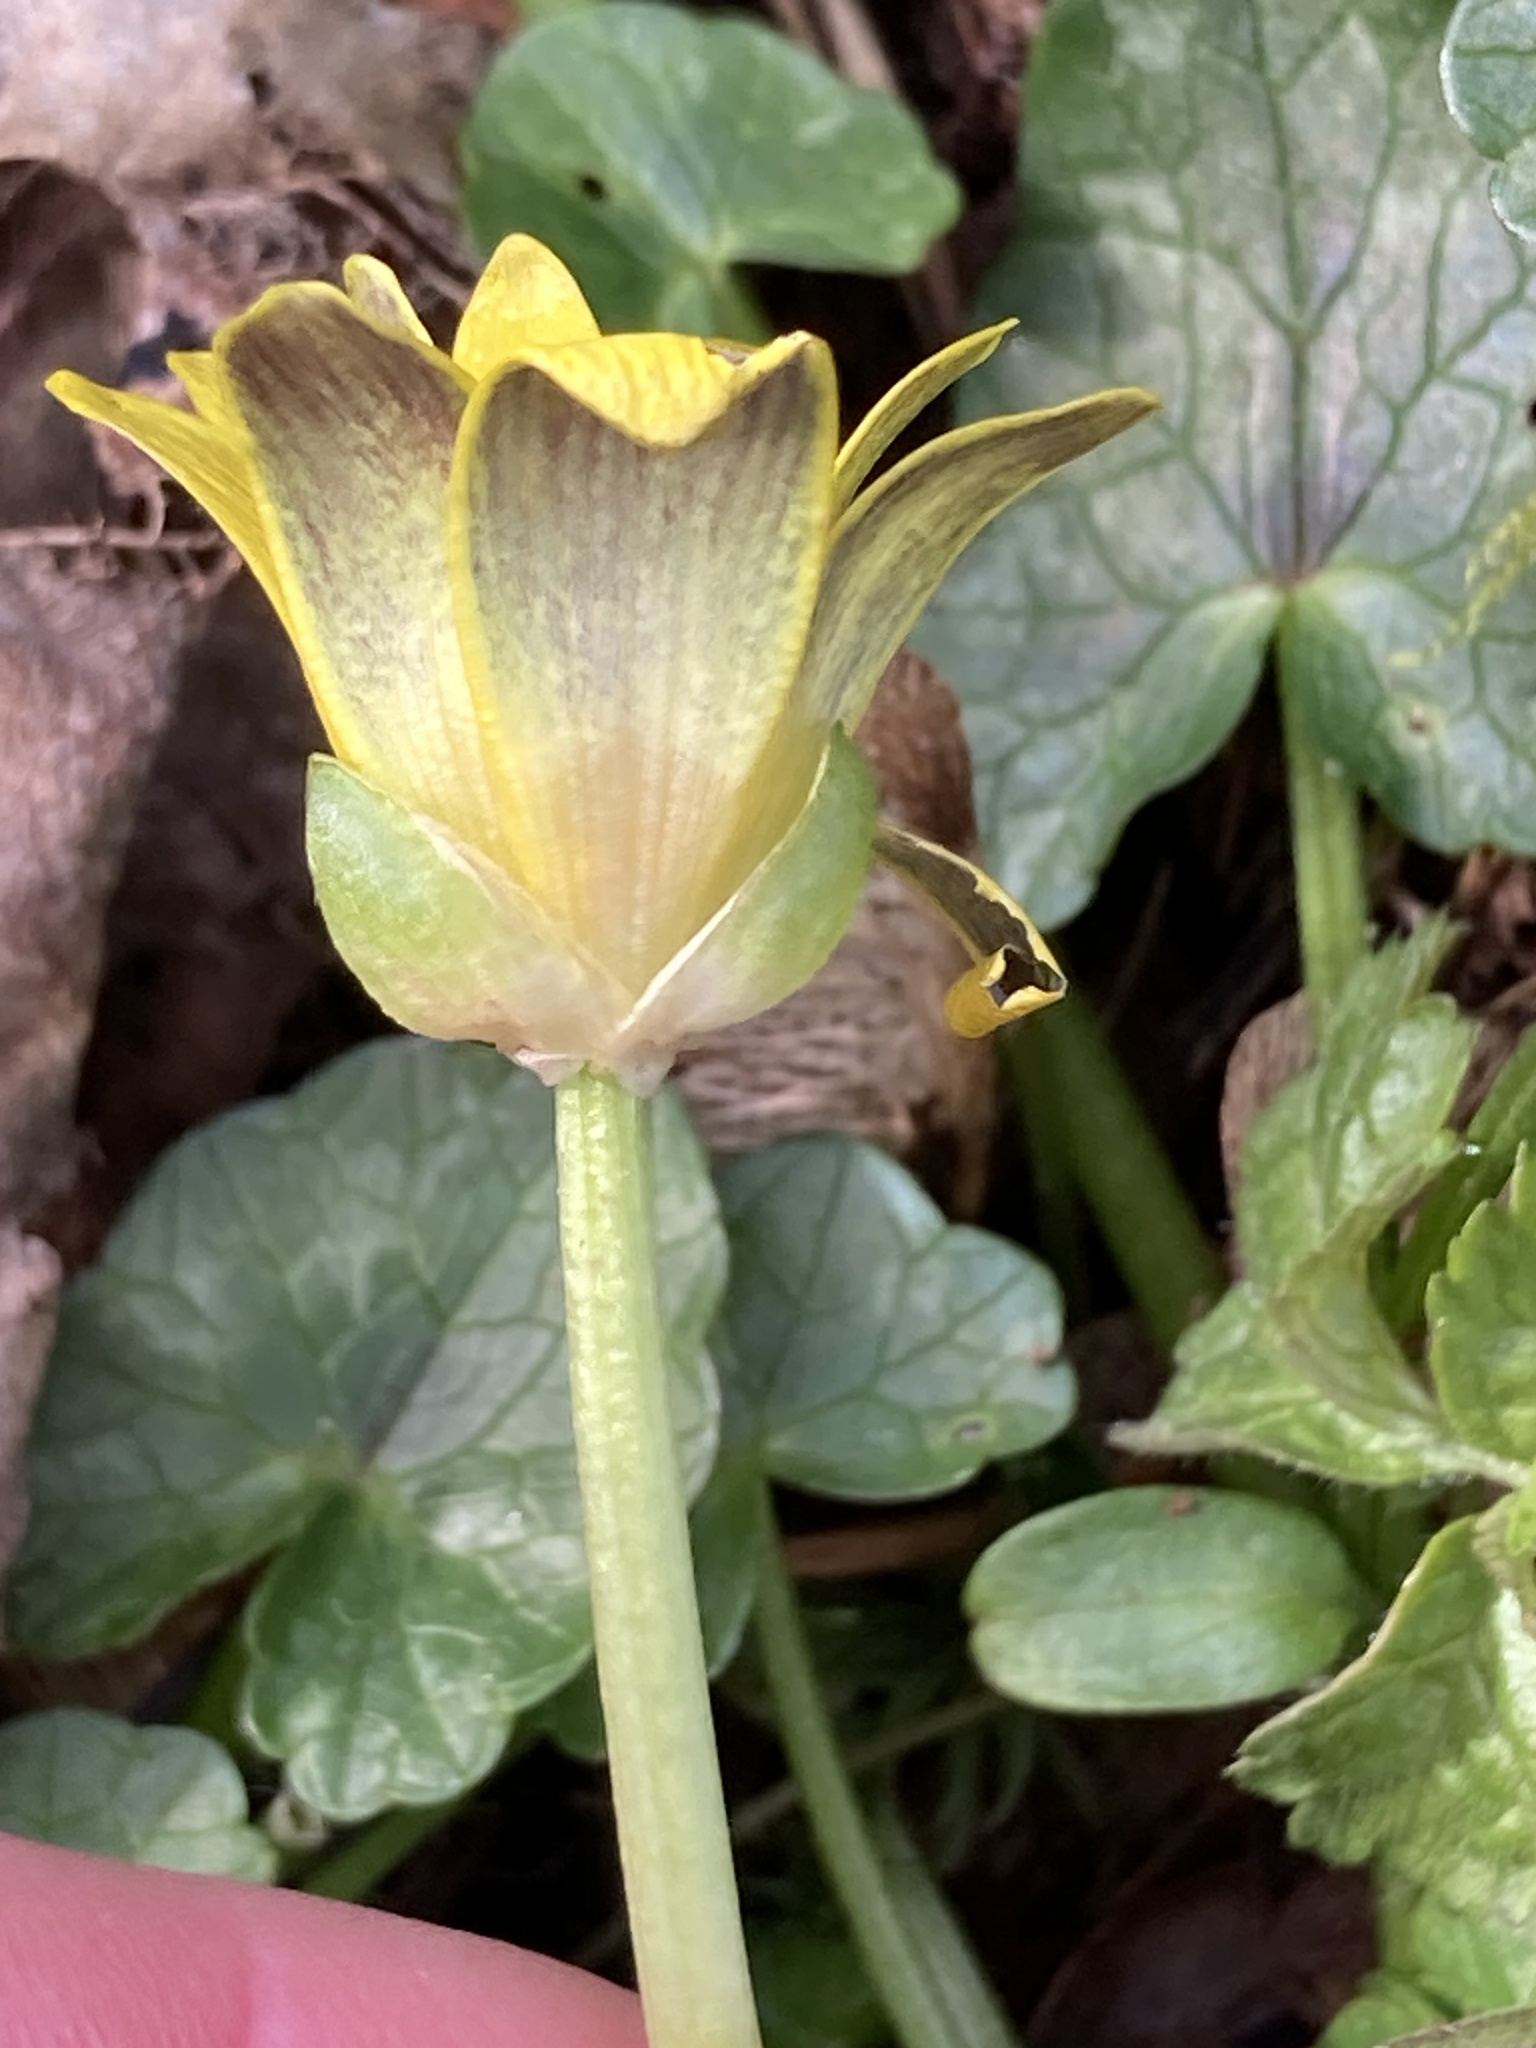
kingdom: Plantae
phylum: Tracheophyta
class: Magnoliopsida
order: Ranunculales
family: Ranunculaceae
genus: Ficaria
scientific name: Ficaria verna
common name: Lesser celandine
